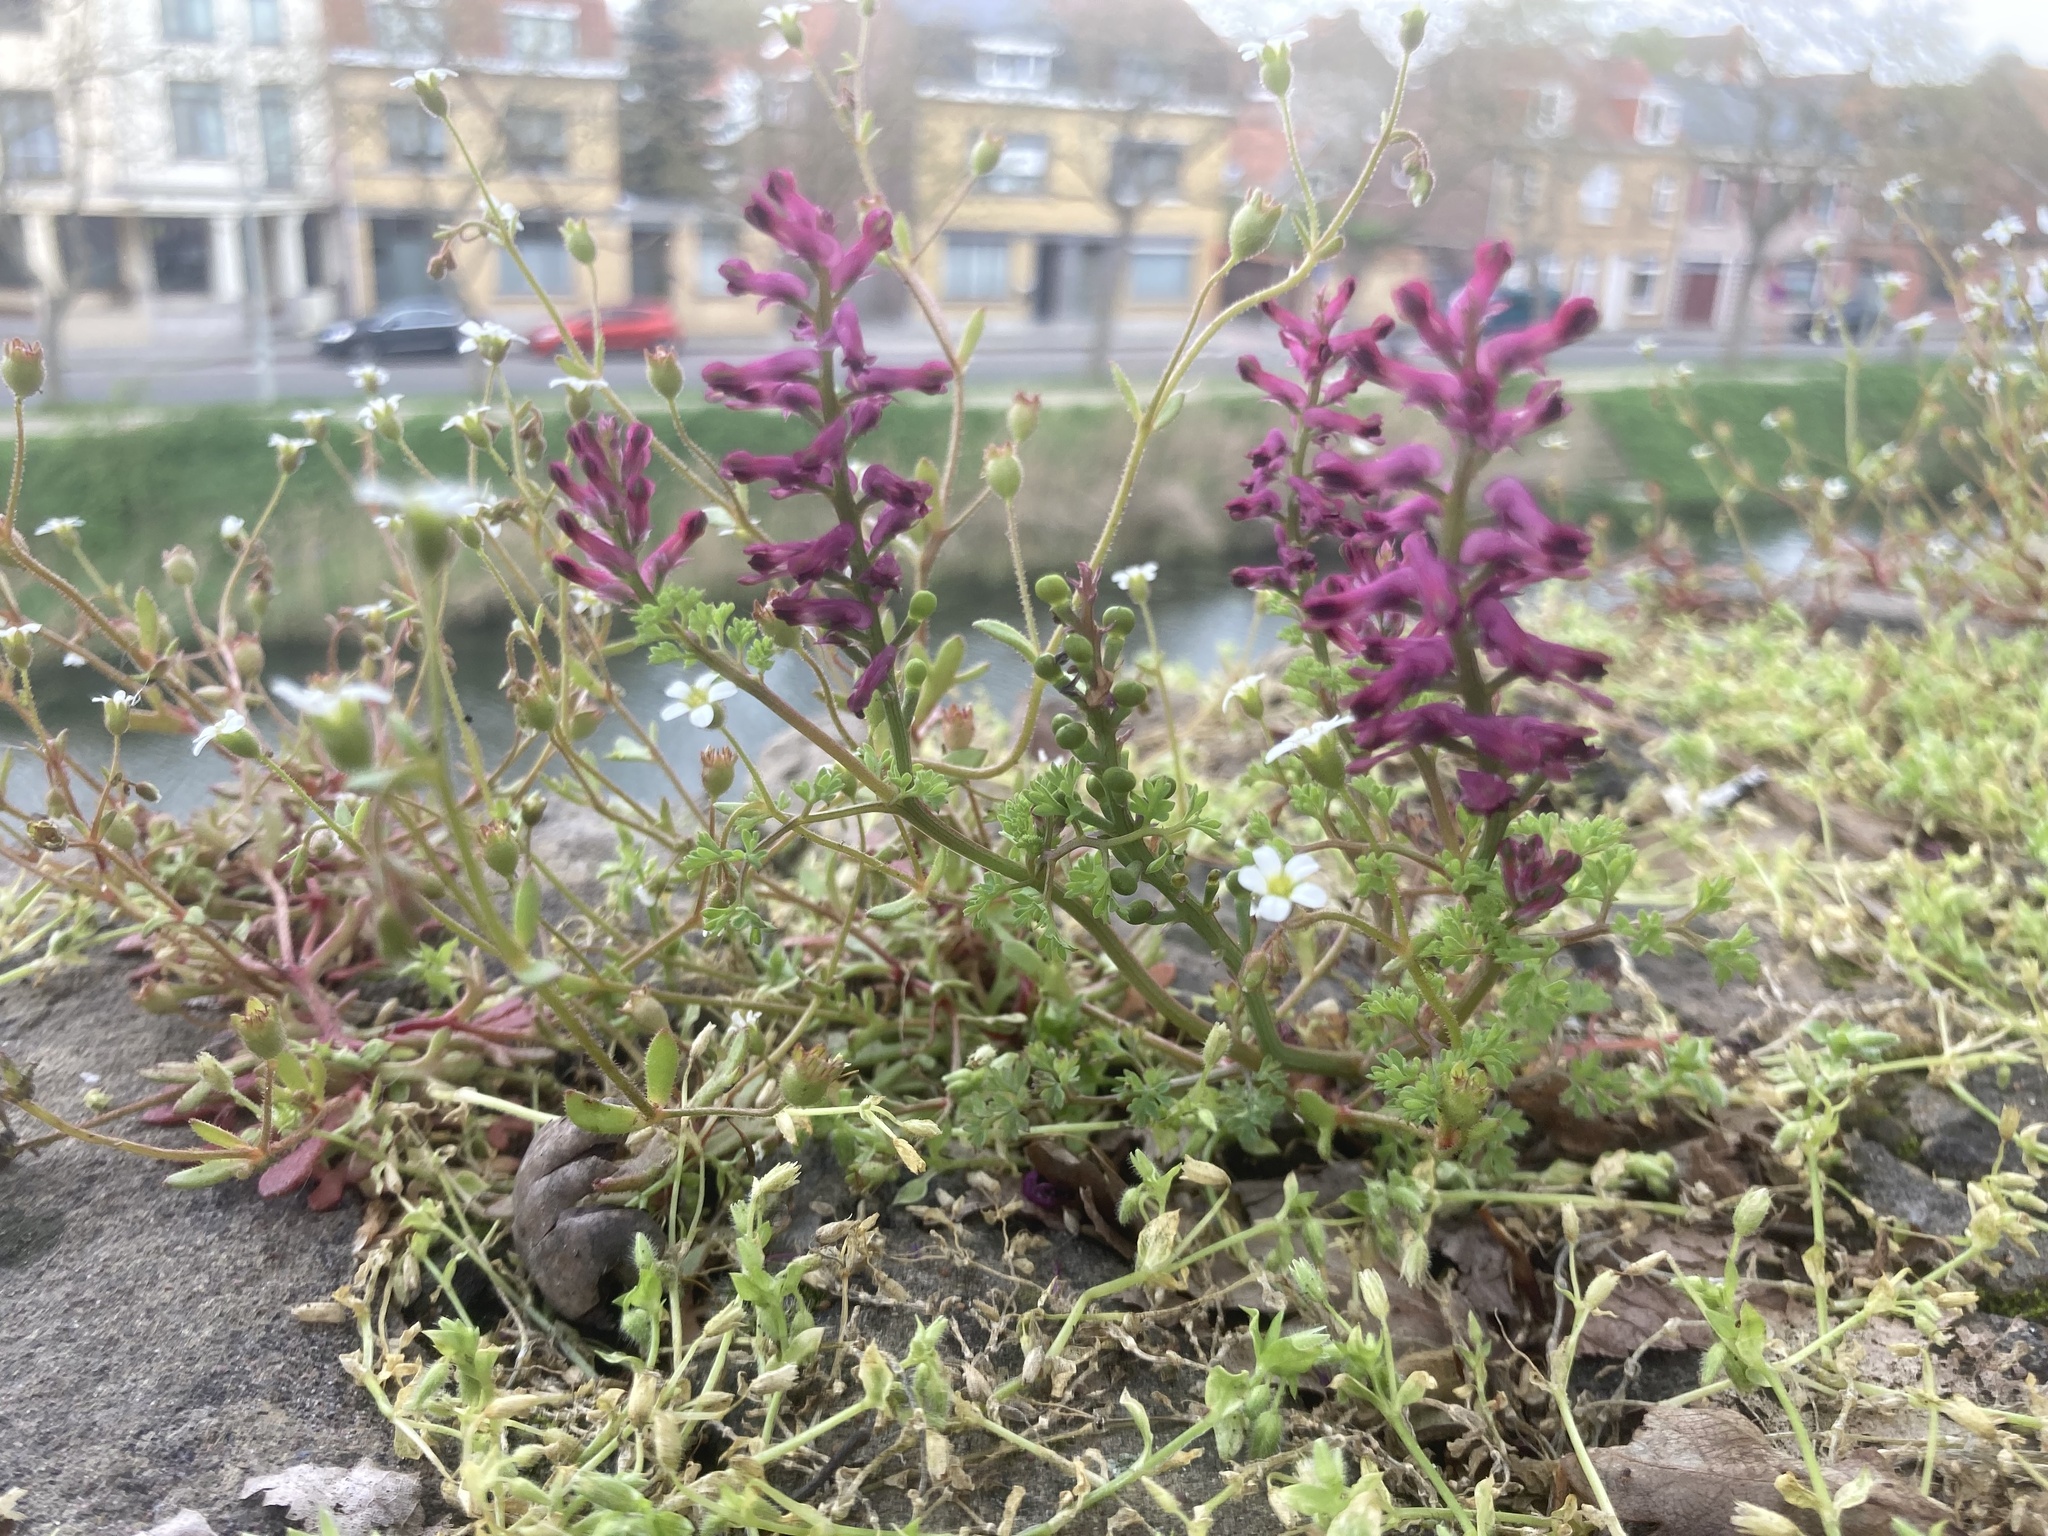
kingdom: Plantae
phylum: Tracheophyta
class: Magnoliopsida
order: Ranunculales
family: Papaveraceae
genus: Fumaria
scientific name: Fumaria officinalis
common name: Common fumitory
